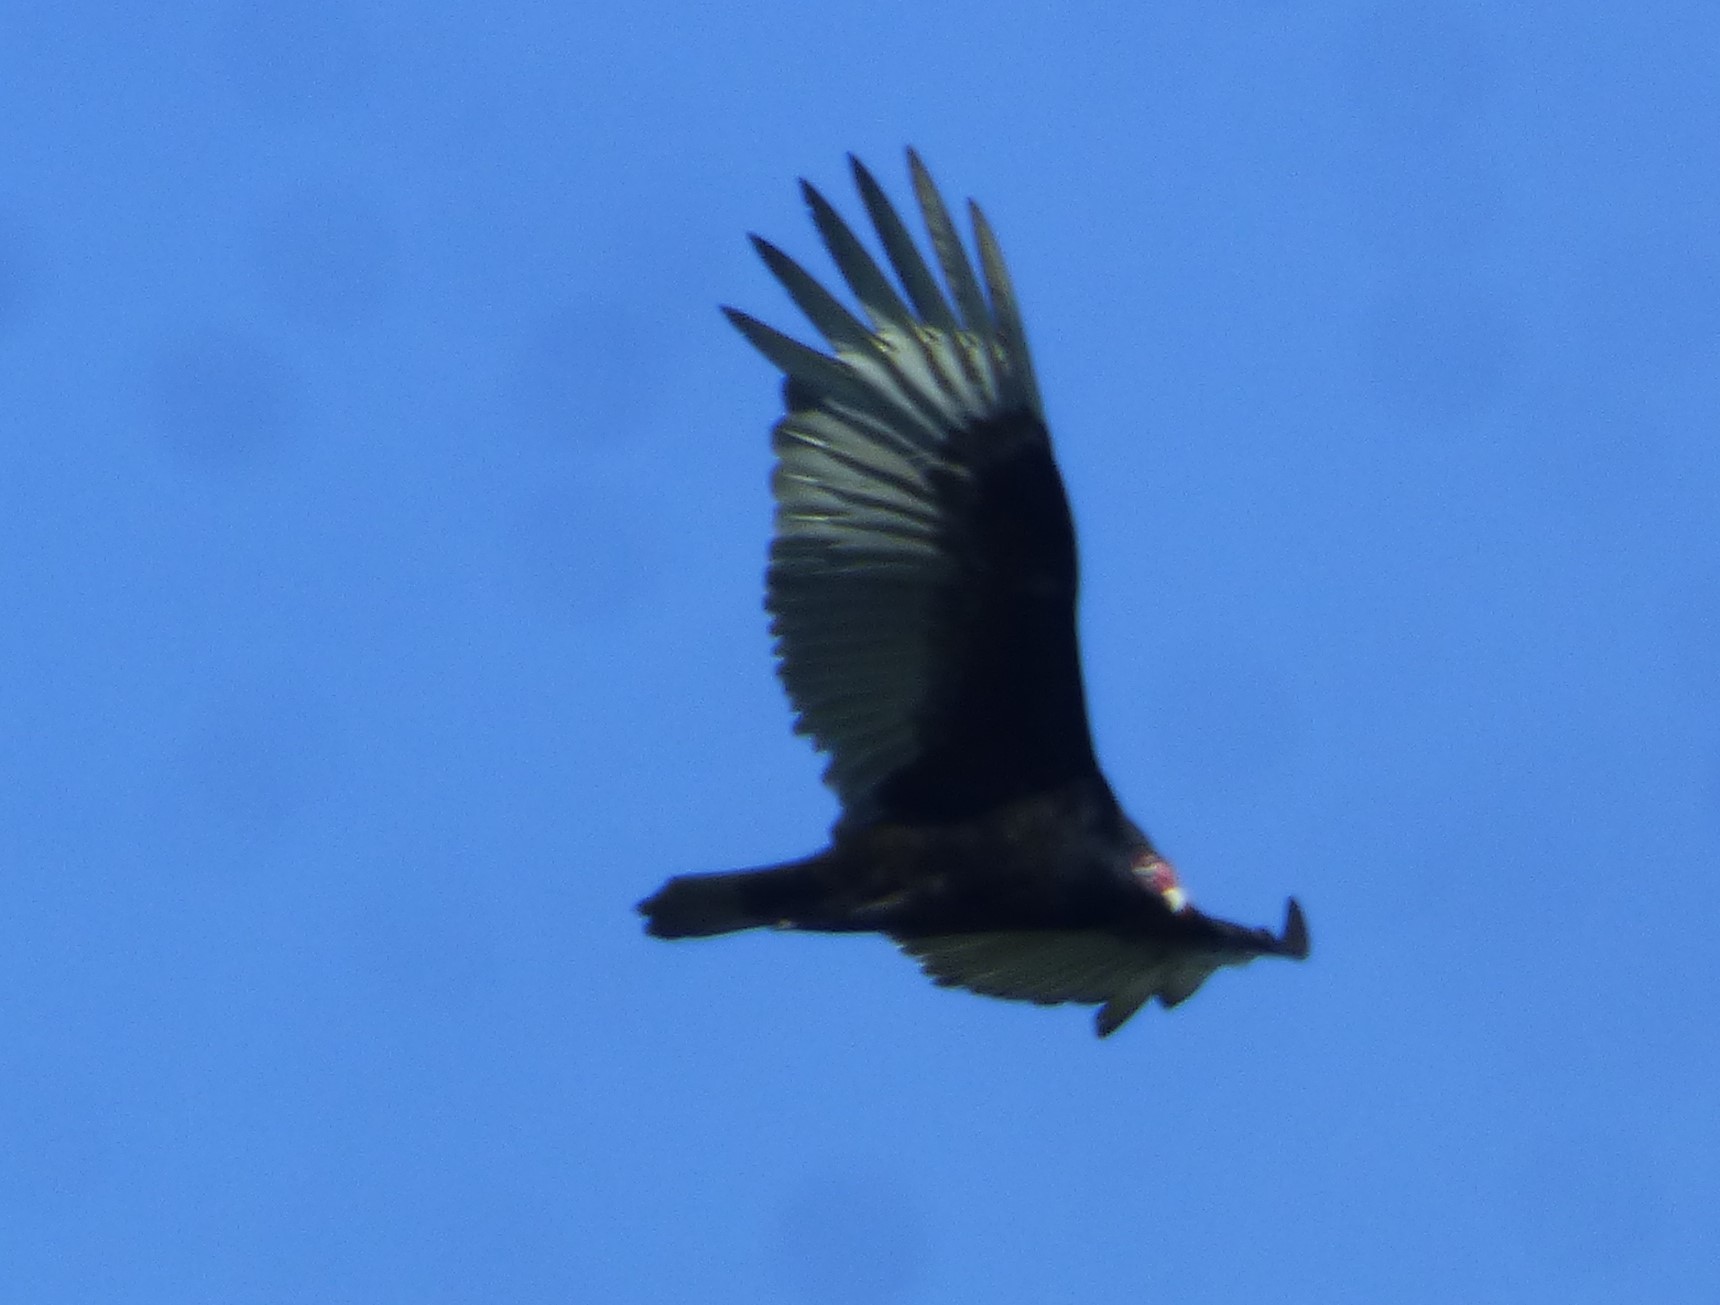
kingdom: Animalia
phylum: Chordata
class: Aves
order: Accipitriformes
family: Cathartidae
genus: Cathartes
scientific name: Cathartes aura
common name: Turkey vulture
